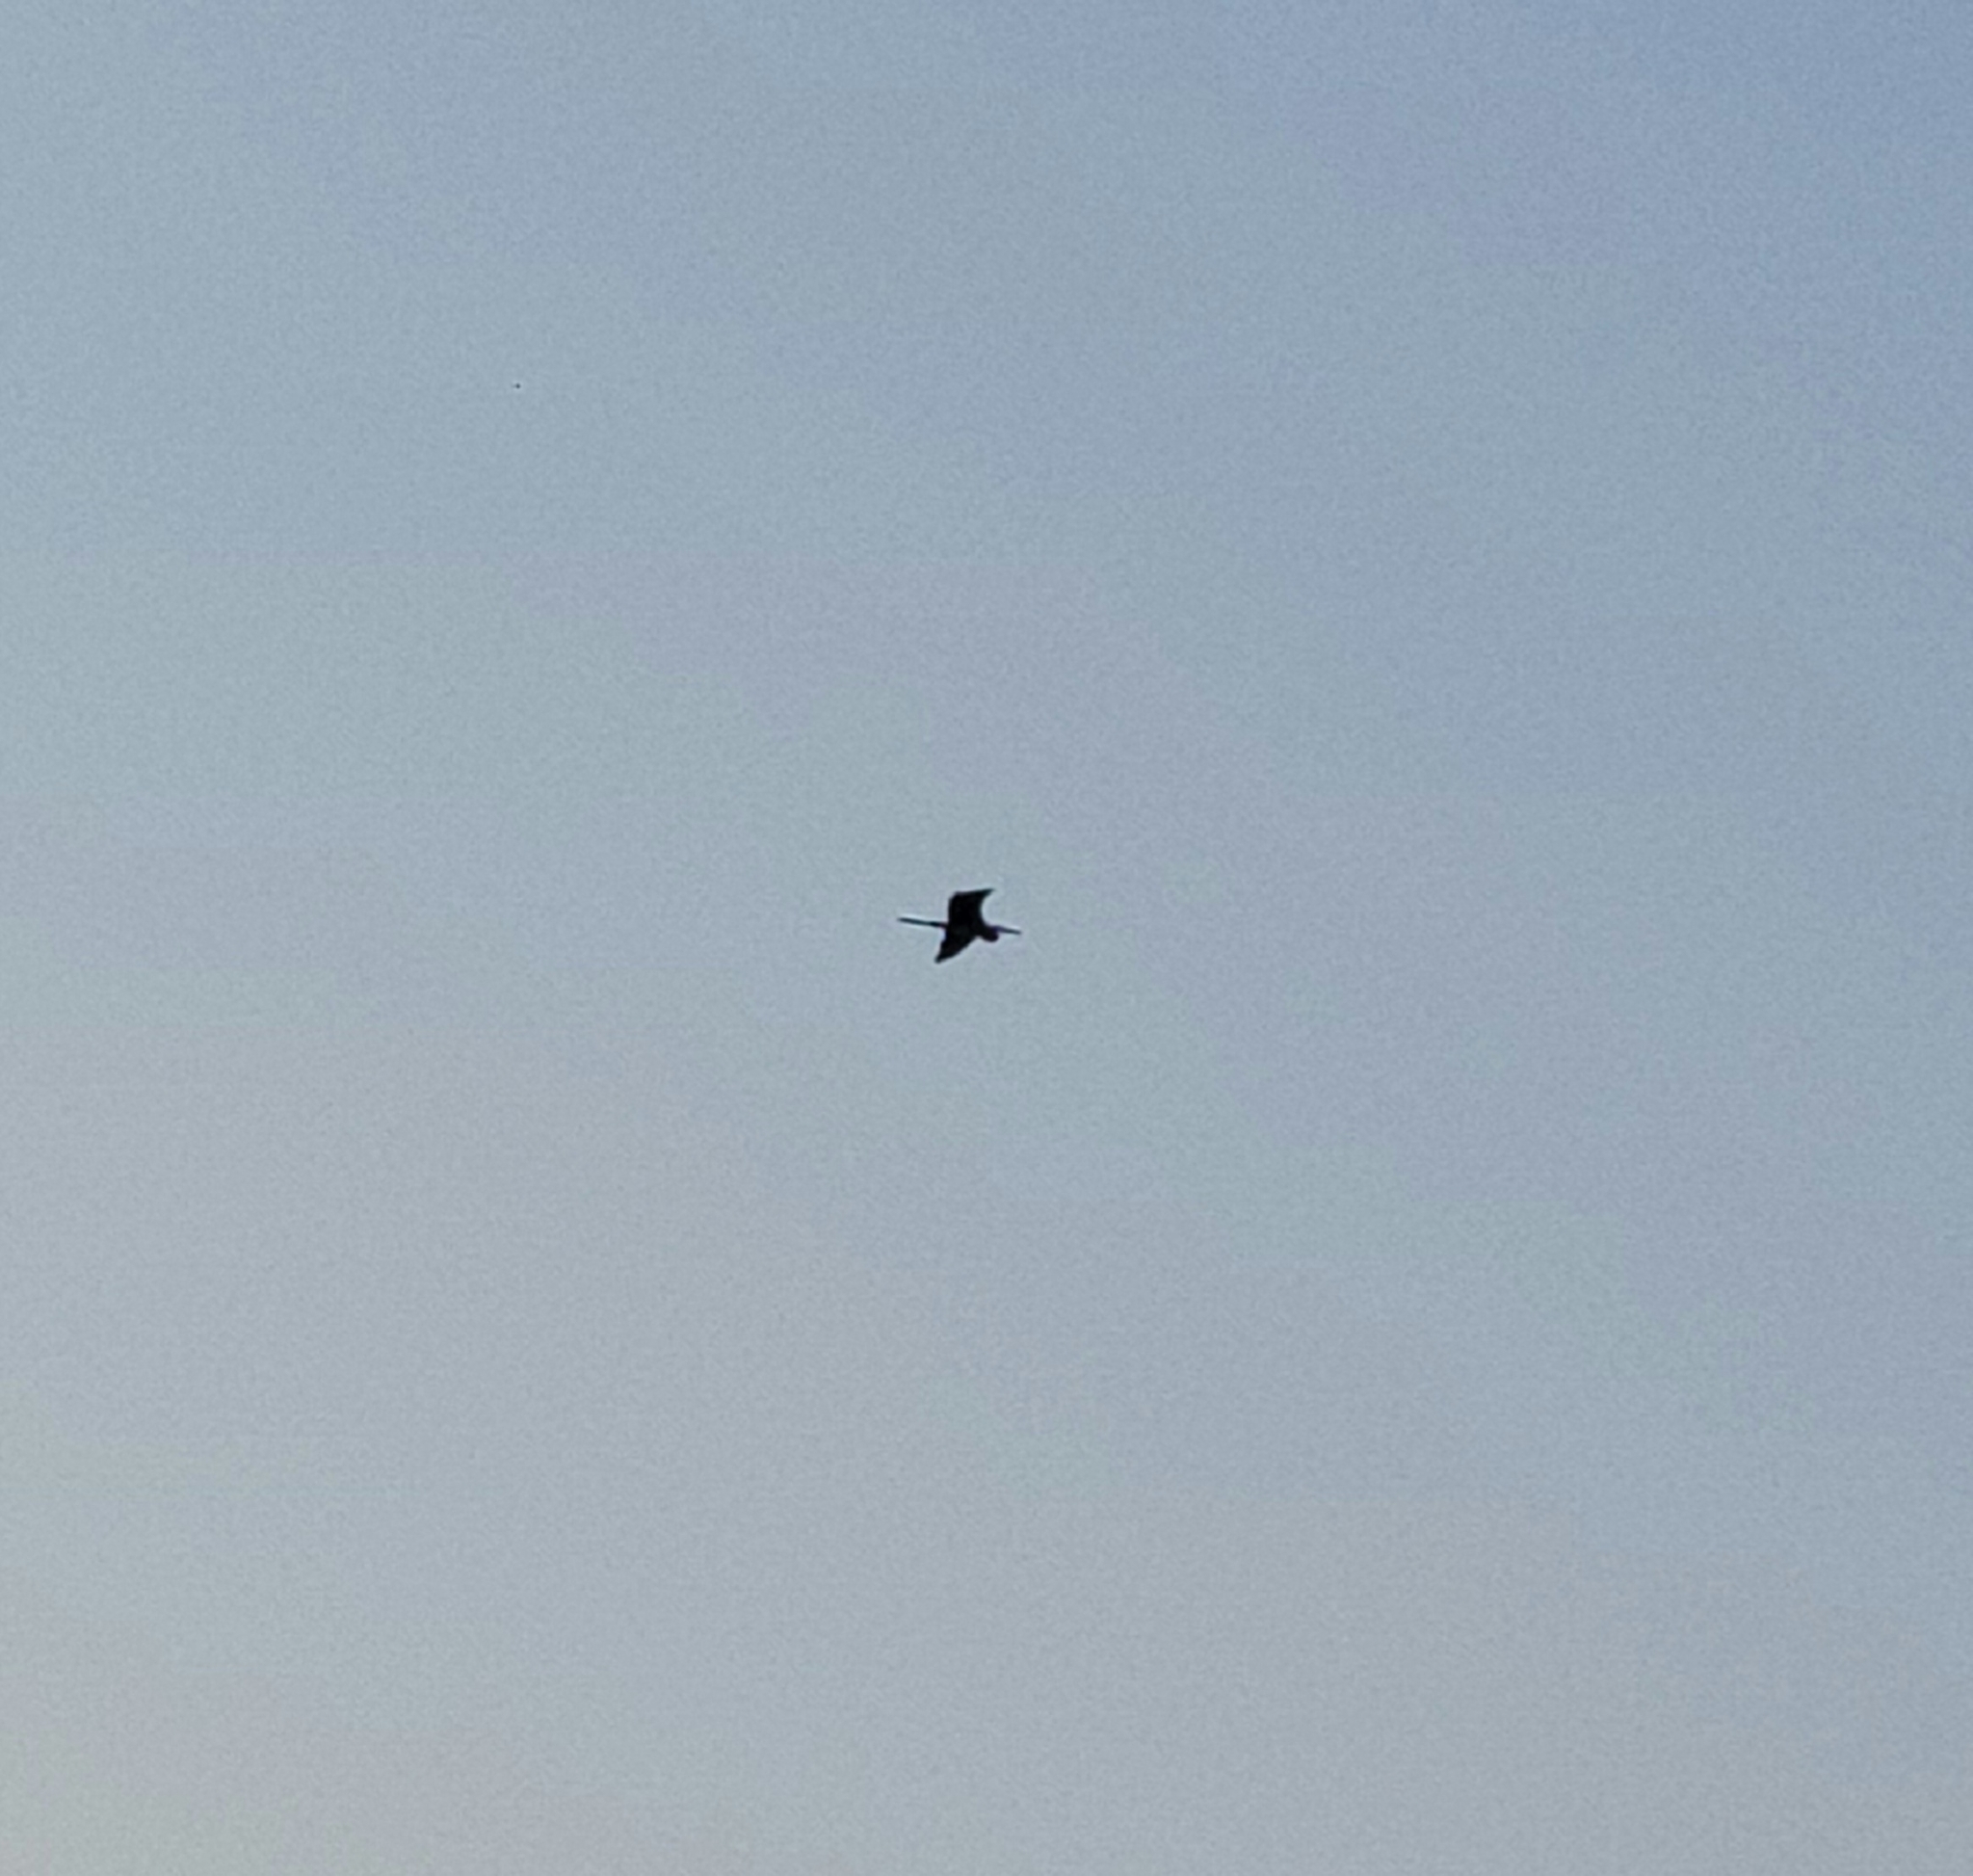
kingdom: Animalia
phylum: Chordata
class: Aves
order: Pelecaniformes
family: Ardeidae
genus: Ardea
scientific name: Ardea herodias
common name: Great blue heron
